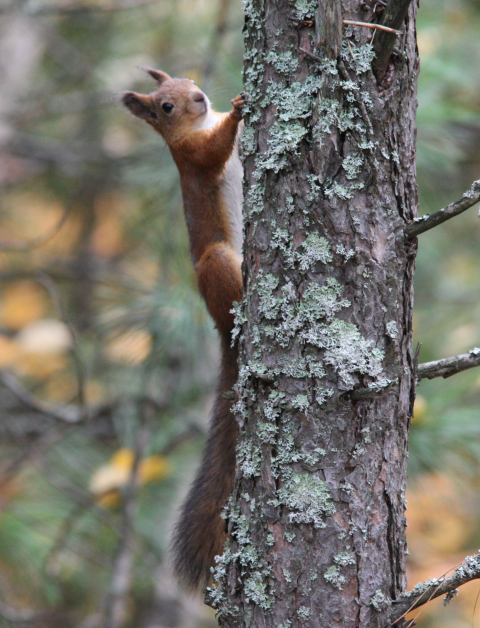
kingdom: Animalia
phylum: Chordata
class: Mammalia
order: Rodentia
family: Sciuridae
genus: Sciurus
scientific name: Sciurus vulgaris
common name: Eurasian red squirrel
